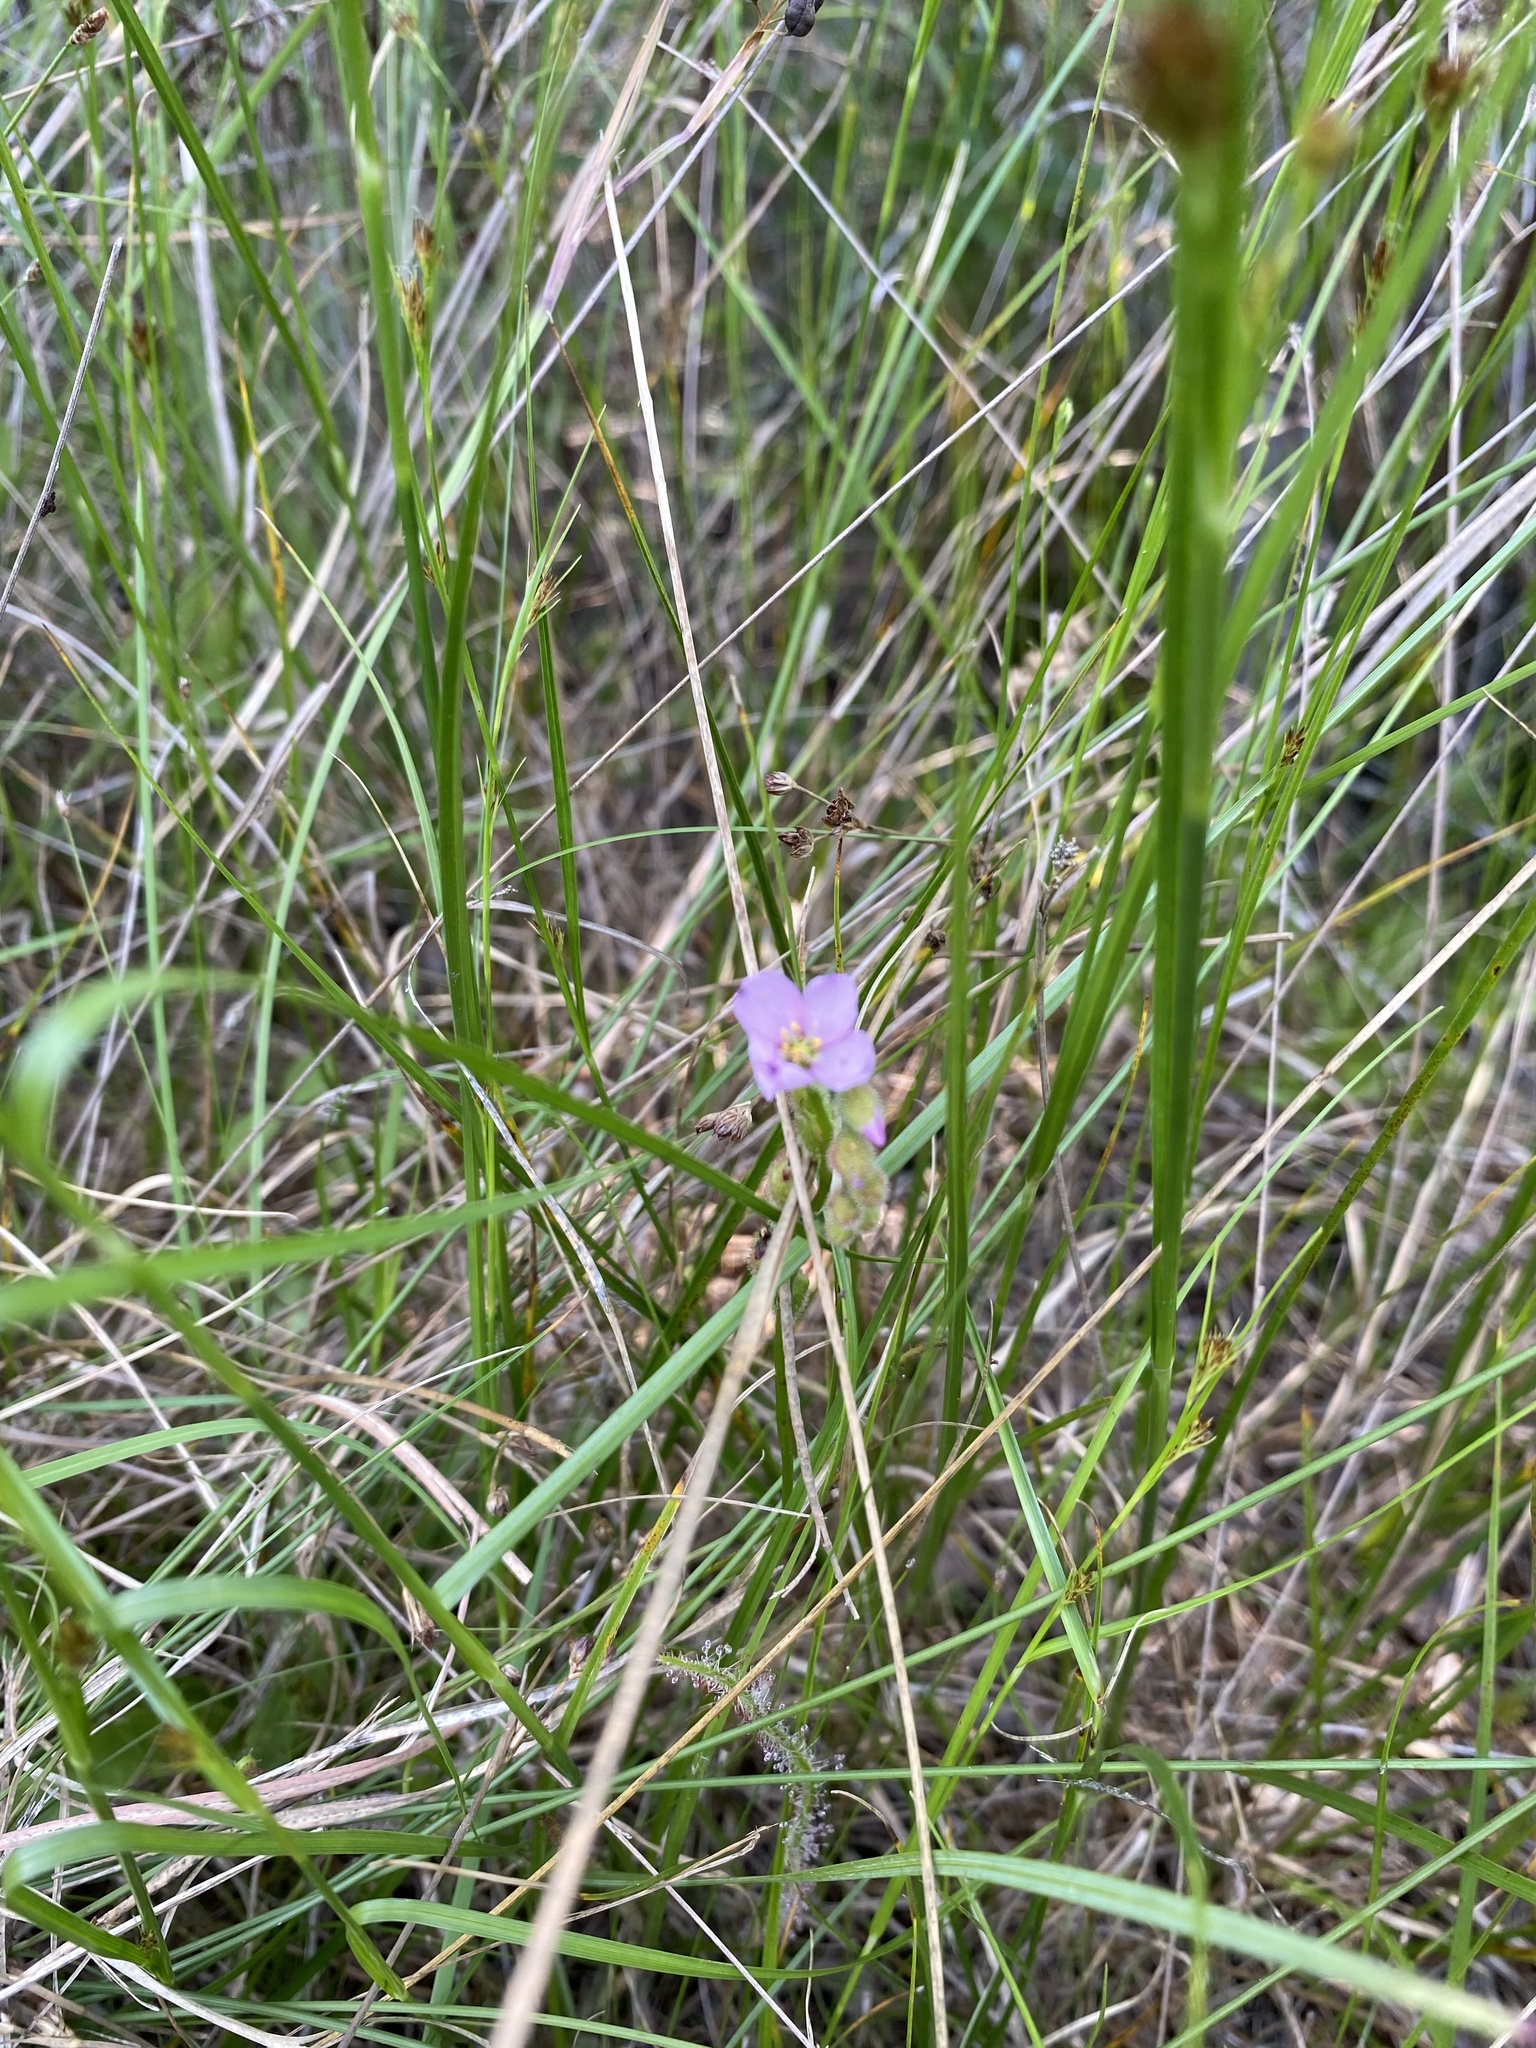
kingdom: Plantae
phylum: Tracheophyta
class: Magnoliopsida
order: Caryophyllales
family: Droseraceae
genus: Drosera
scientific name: Drosera filiformis
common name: Dew-thread
